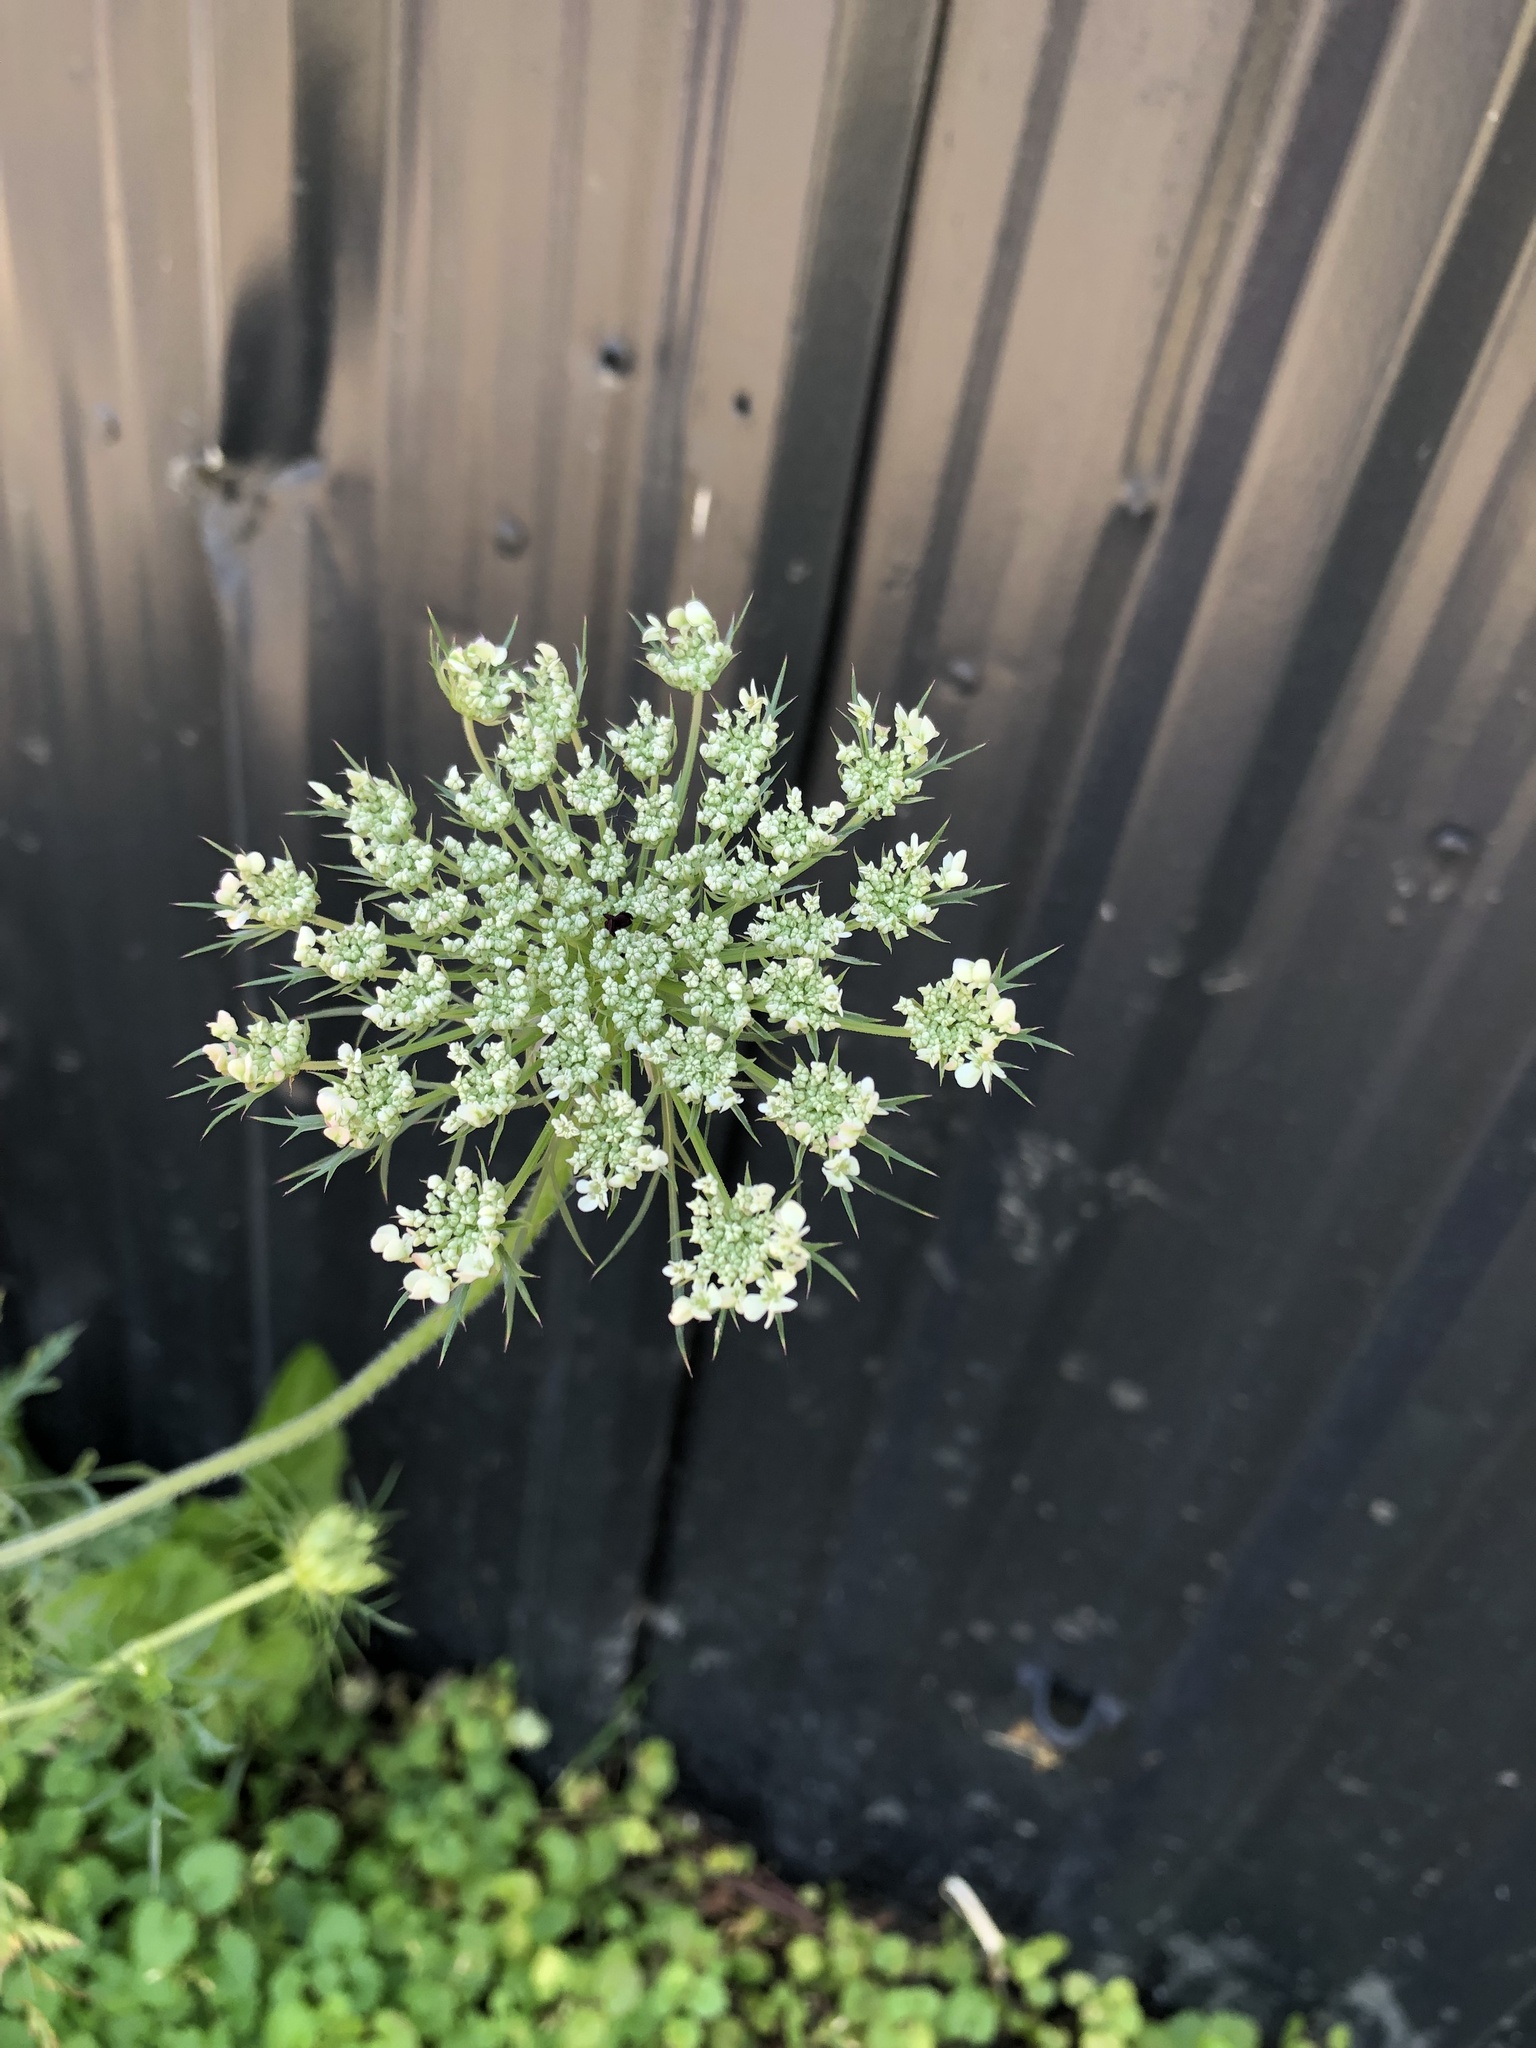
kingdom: Plantae
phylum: Tracheophyta
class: Magnoliopsida
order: Apiales
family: Apiaceae
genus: Daucus
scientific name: Daucus carota
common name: Wild carrot
